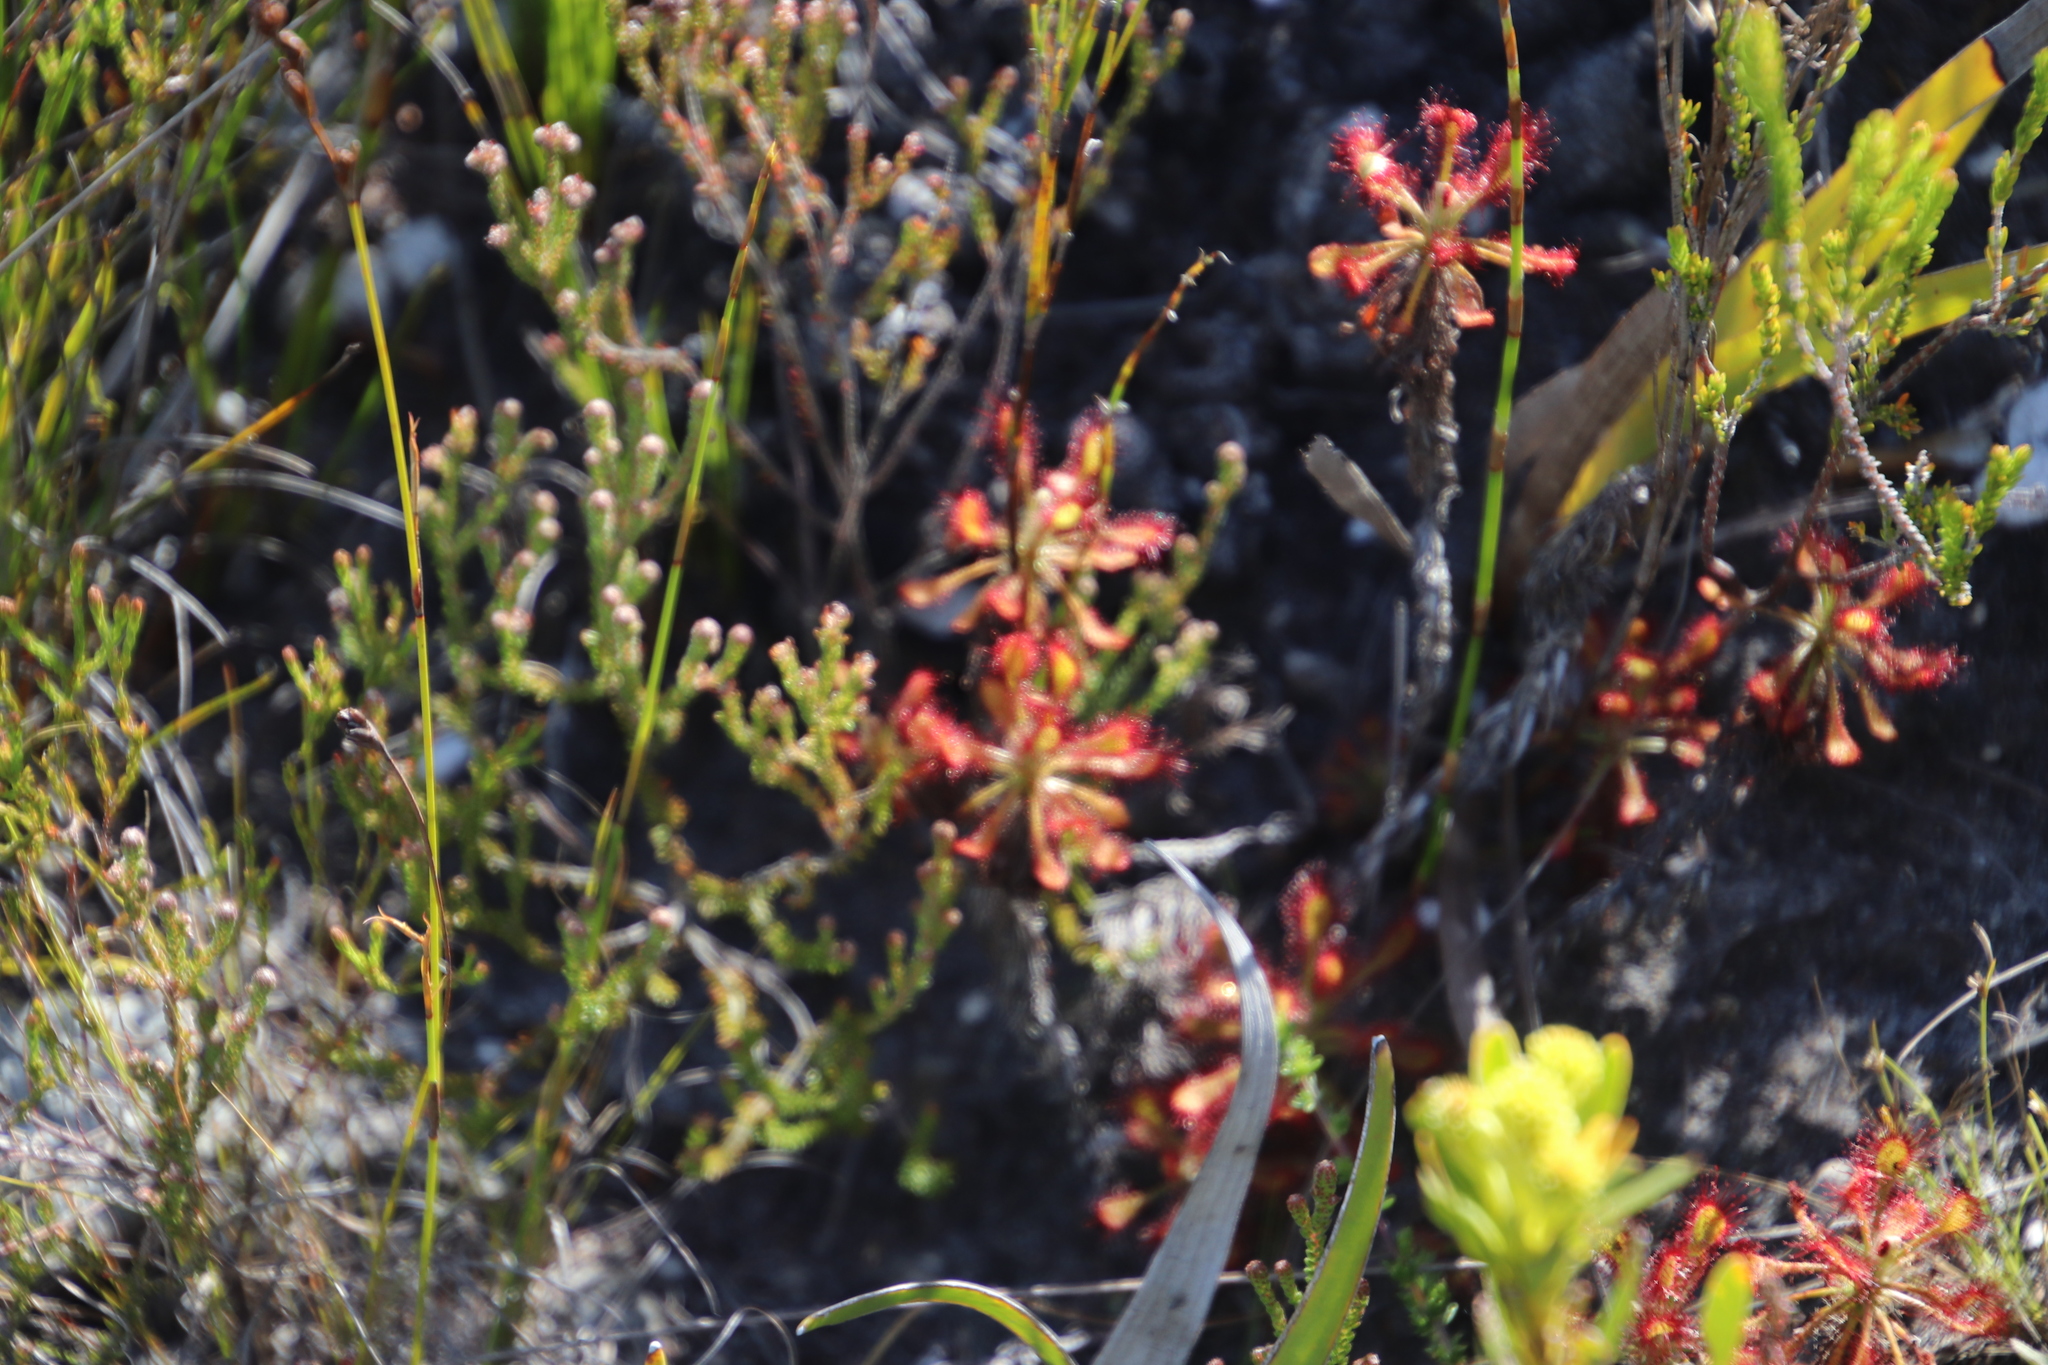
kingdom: Plantae
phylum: Tracheophyta
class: Magnoliopsida
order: Caryophyllales
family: Droseraceae
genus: Drosera
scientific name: Drosera glabripes
